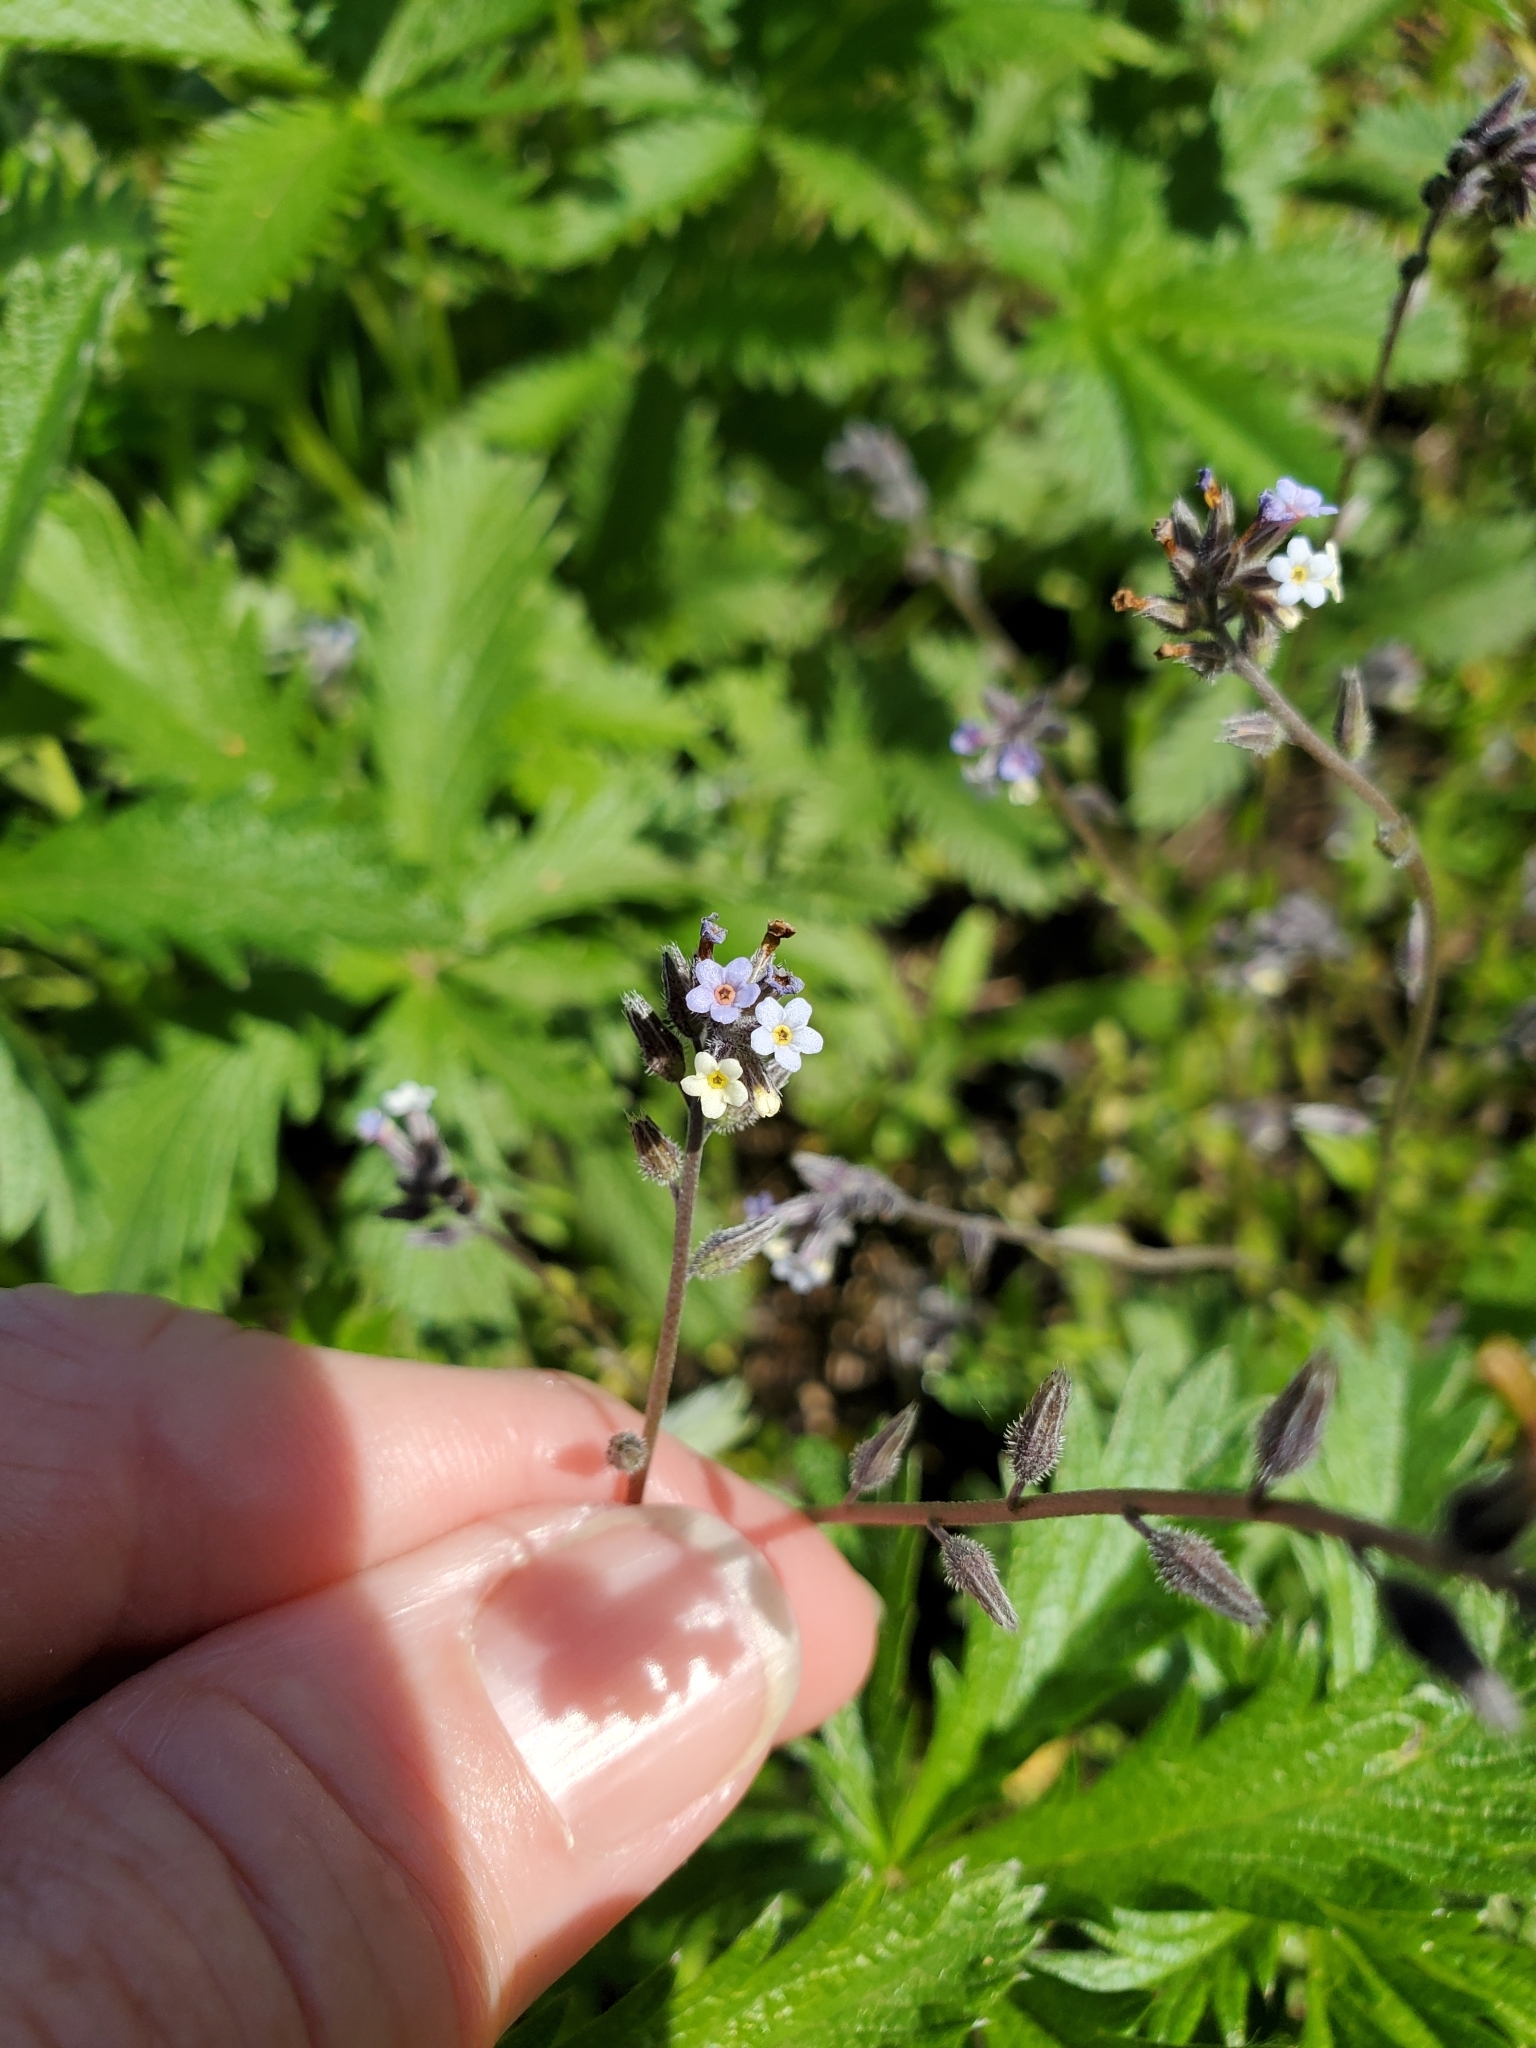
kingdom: Plantae
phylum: Tracheophyta
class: Magnoliopsida
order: Boraginales
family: Boraginaceae
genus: Myosotis
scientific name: Myosotis discolor
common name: Changing forget-me-not
